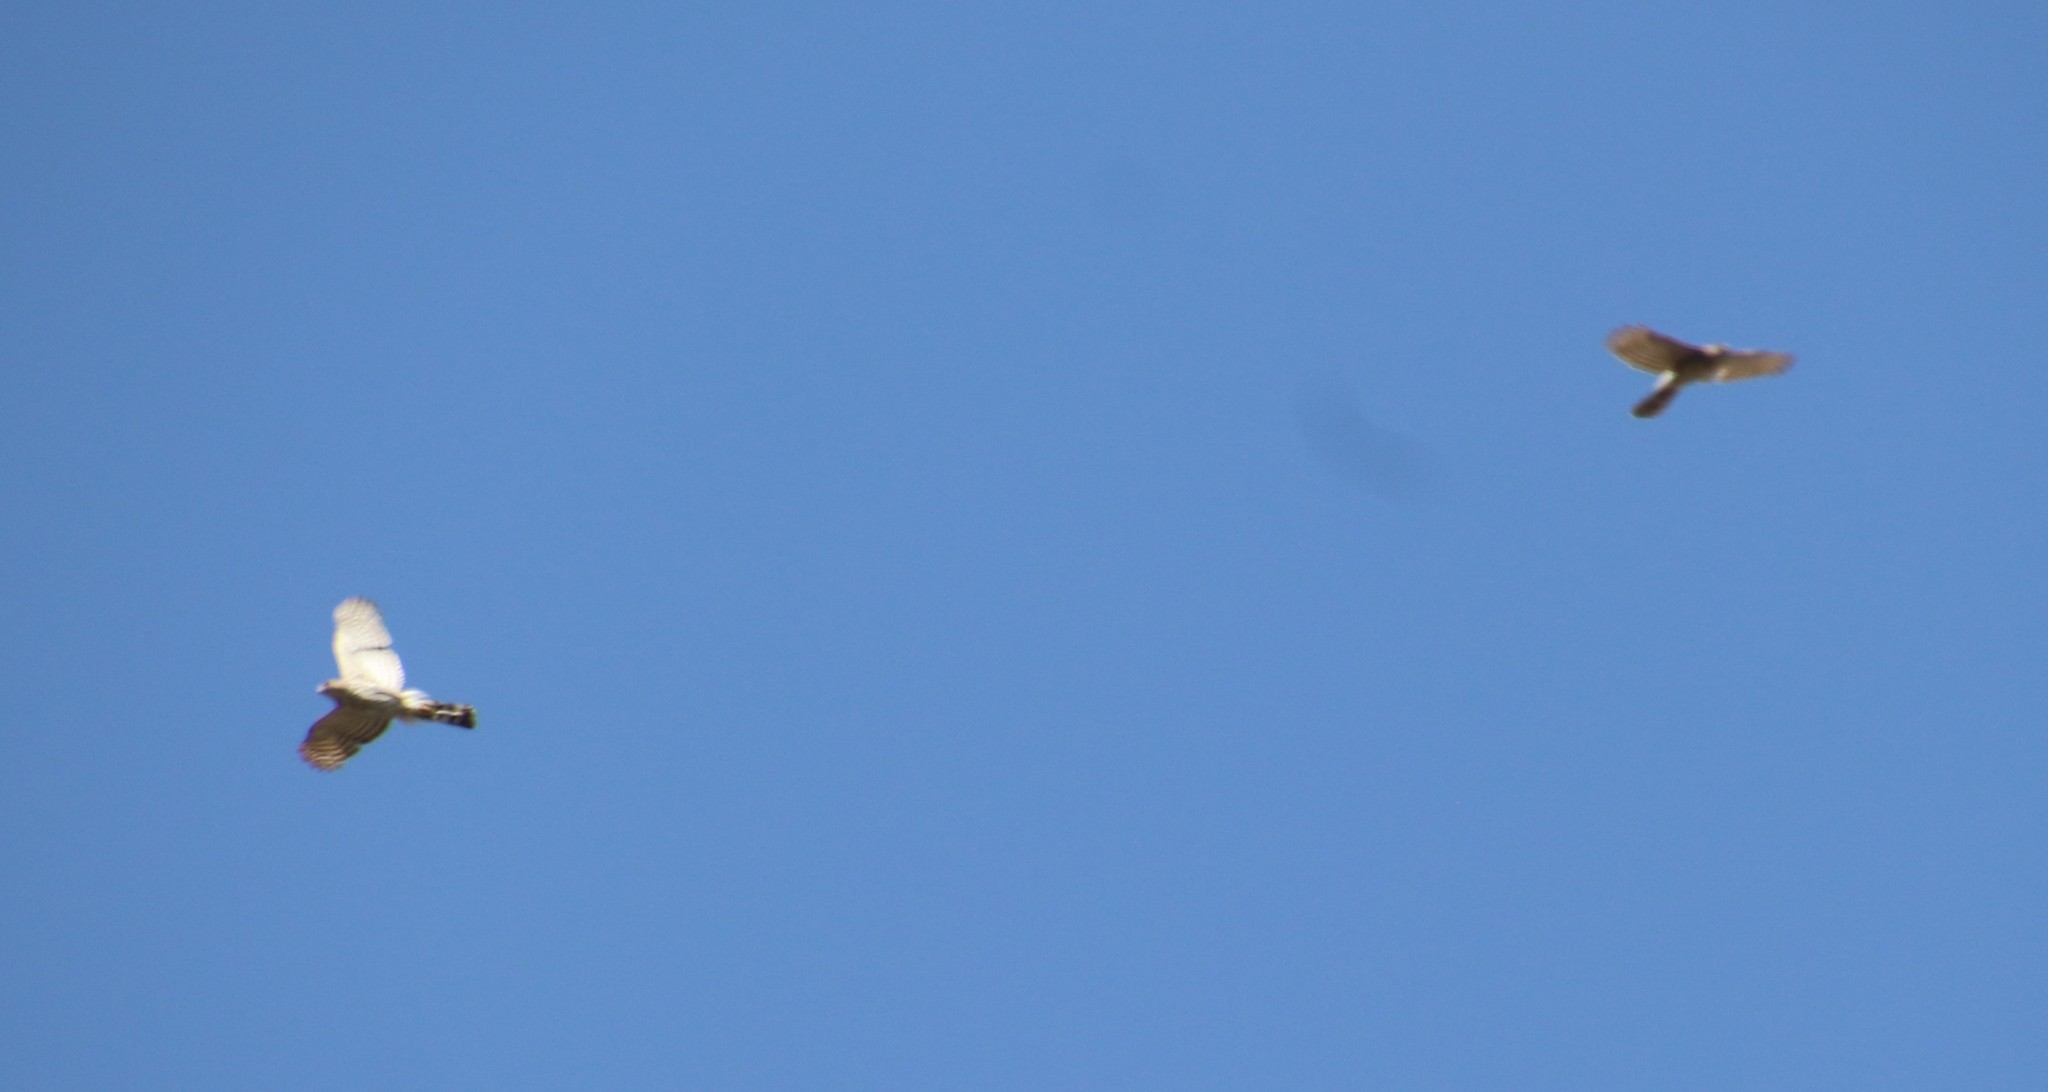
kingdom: Animalia
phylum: Chordata
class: Aves
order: Accipitriformes
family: Accipitridae
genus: Accipiter
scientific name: Accipiter cooperii
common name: Cooper's hawk
